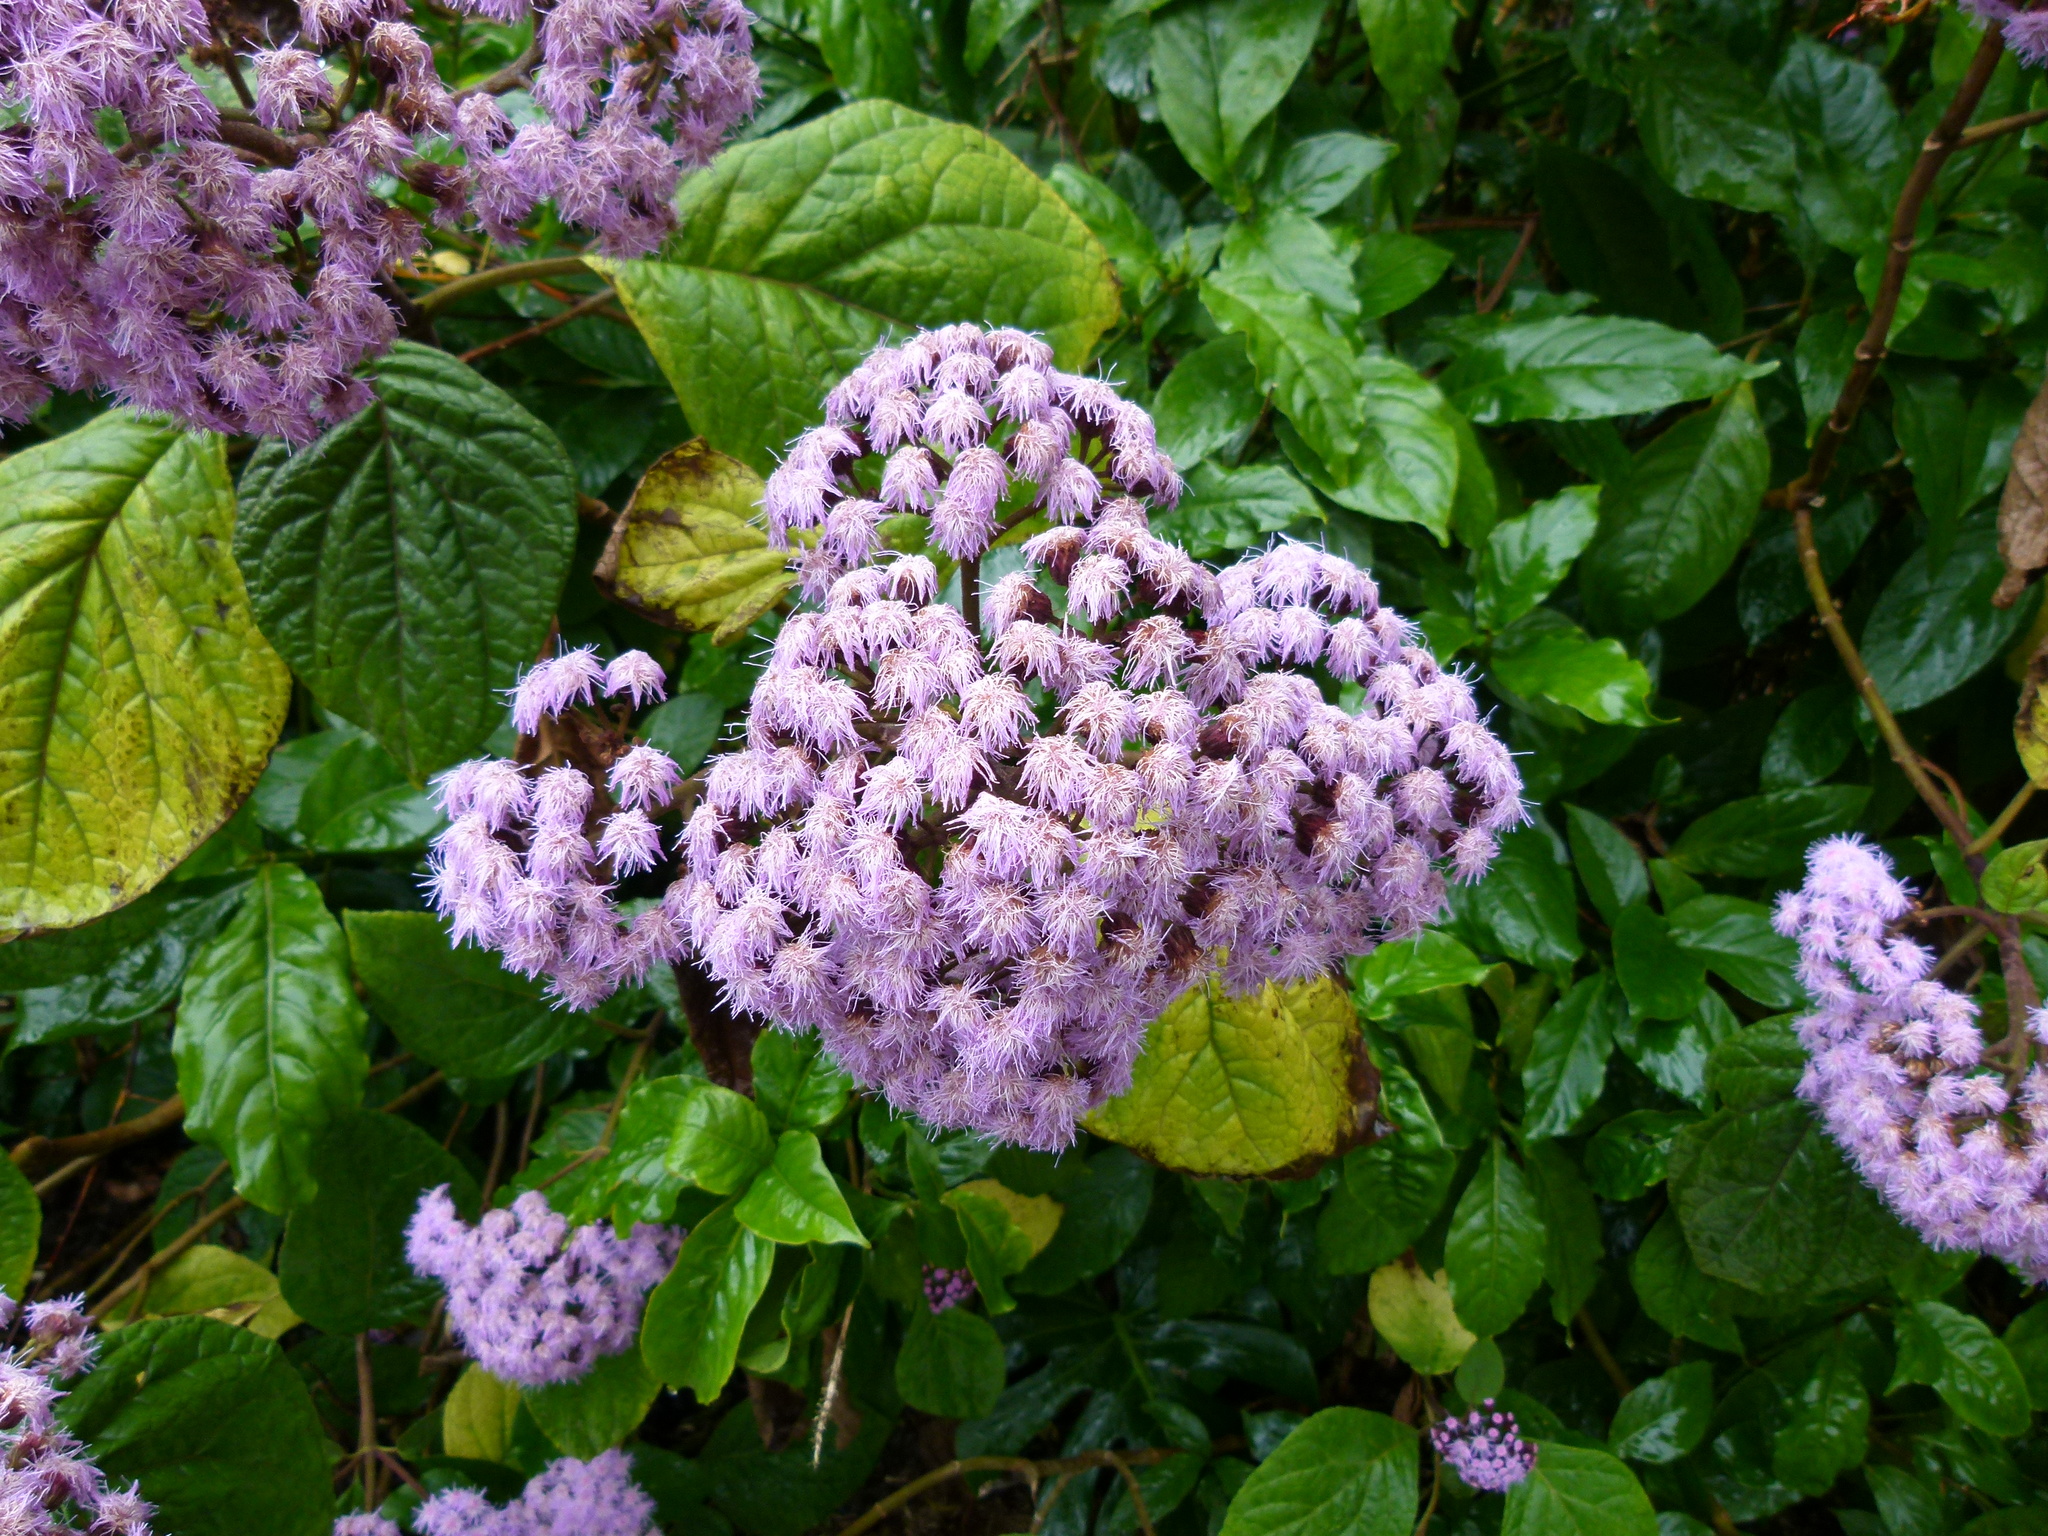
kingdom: Plantae
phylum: Tracheophyta
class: Magnoliopsida
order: Asterales
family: Asteraceae
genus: Bartlettina
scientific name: Bartlettina sordida
